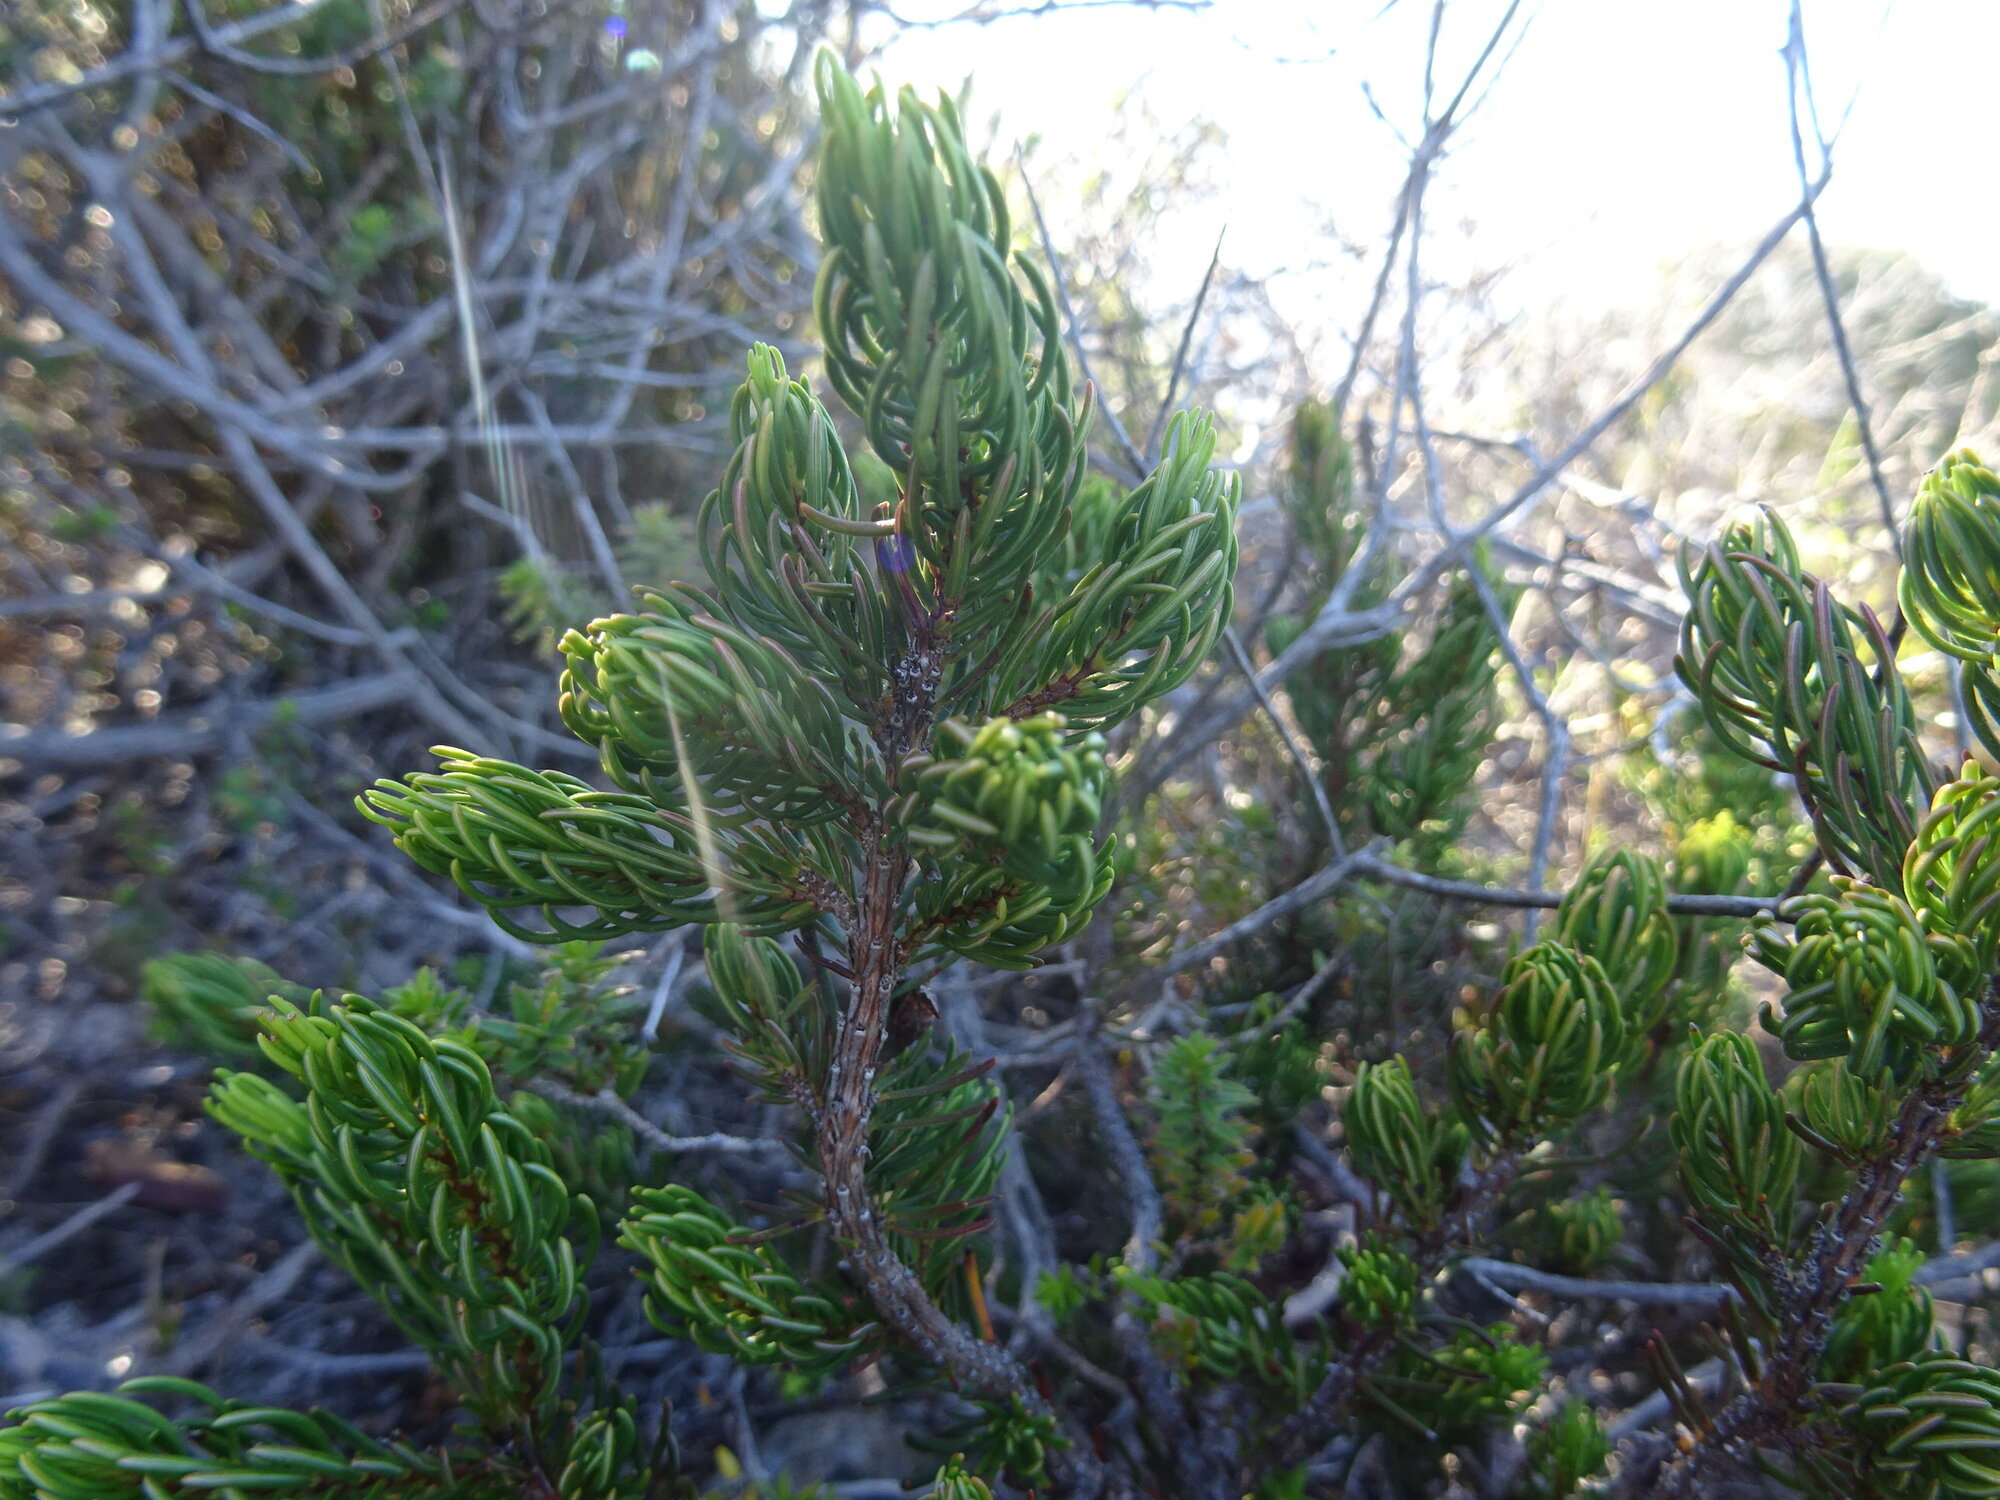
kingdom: Plantae
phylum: Tracheophyta
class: Magnoliopsida
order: Ericales
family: Ericaceae
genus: Erica
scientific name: Erica plukenetii
